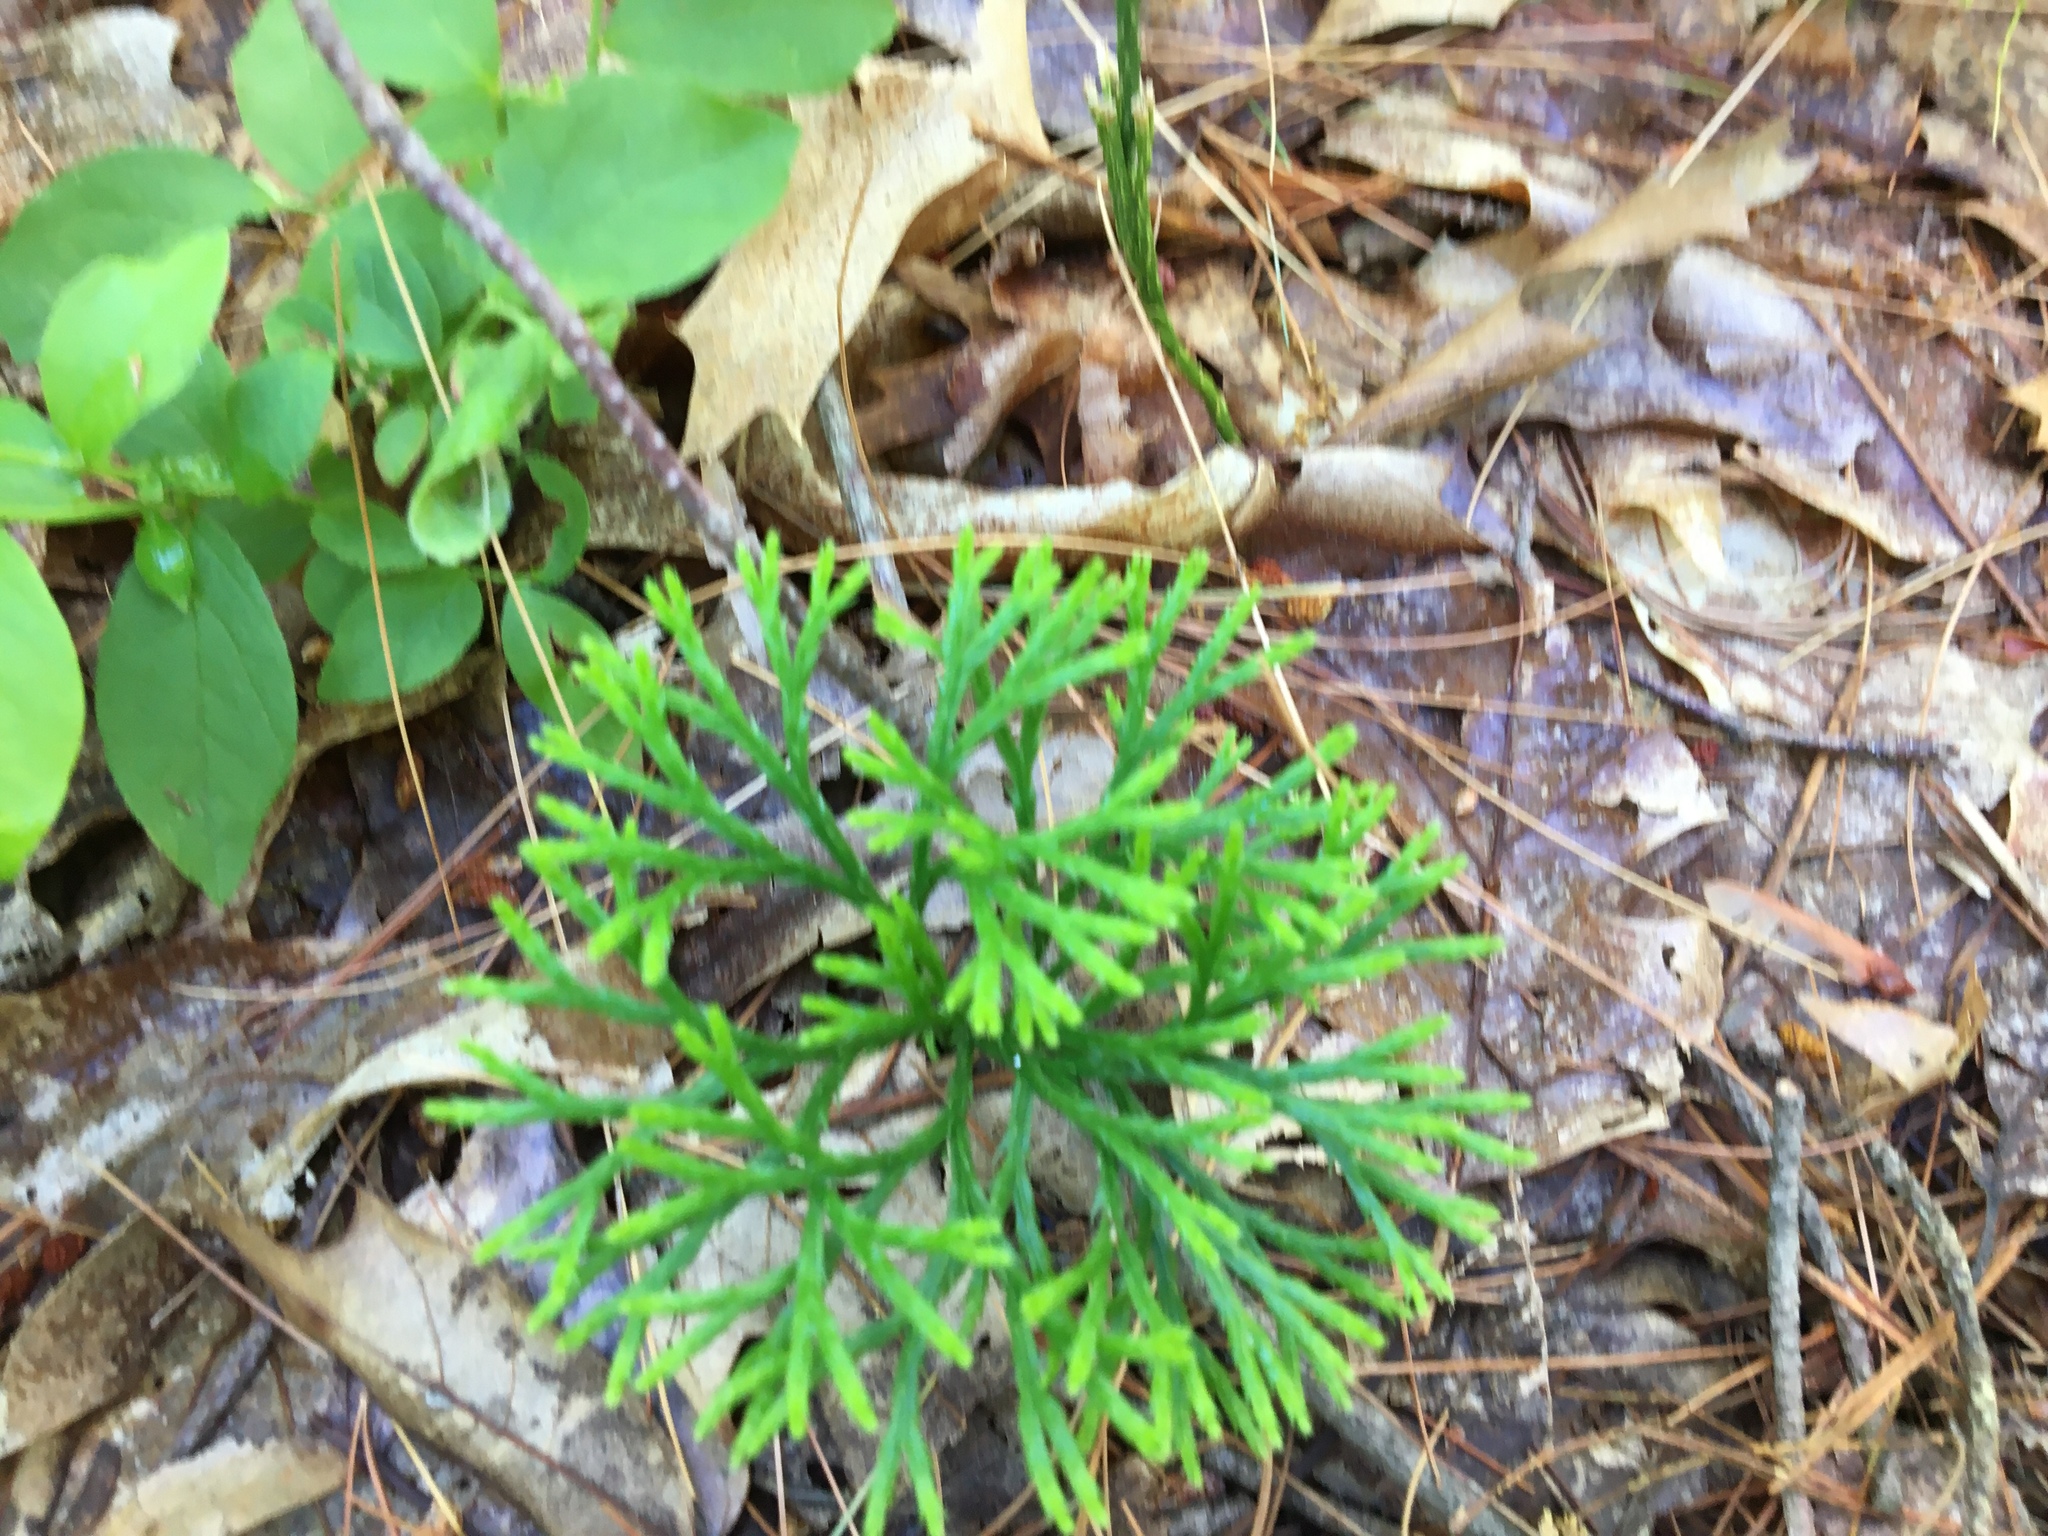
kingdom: Plantae
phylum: Tracheophyta
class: Lycopodiopsida
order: Lycopodiales
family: Lycopodiaceae
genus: Diphasiastrum
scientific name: Diphasiastrum digitatum
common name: Southern running-pine
